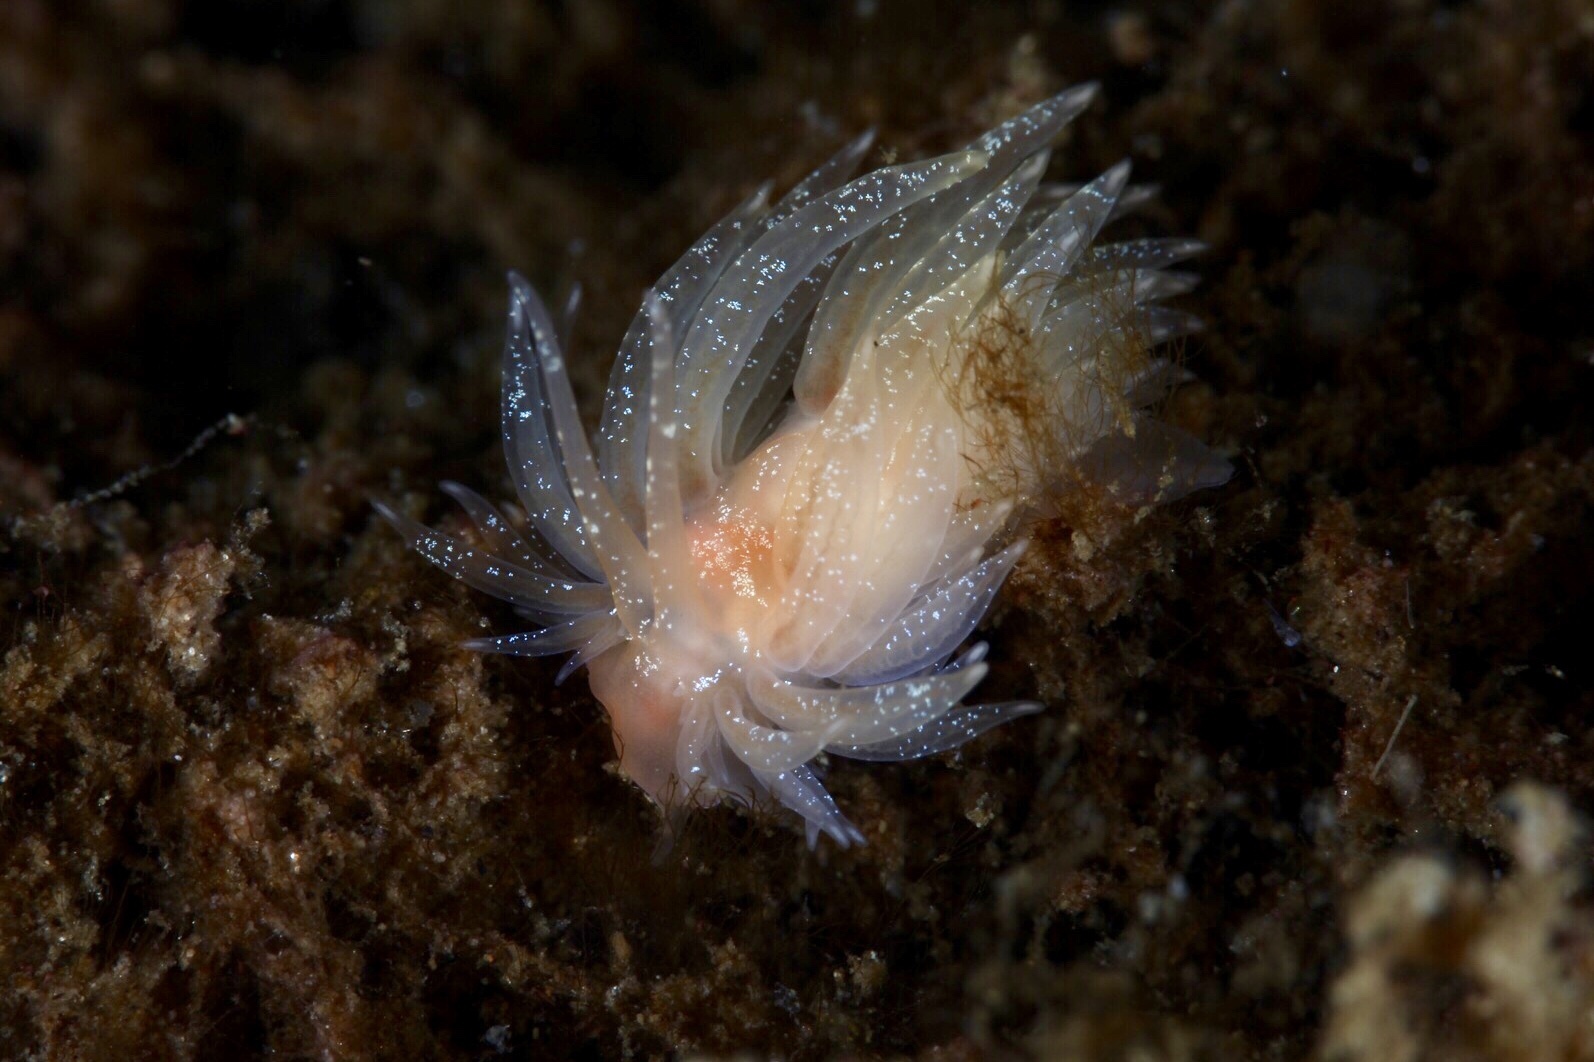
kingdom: Animalia
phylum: Mollusca
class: Gastropoda
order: Nudibranchia
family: Cumanotidae
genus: Cumanotus
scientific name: Cumanotus beaumonti
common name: Polyp aeolis
